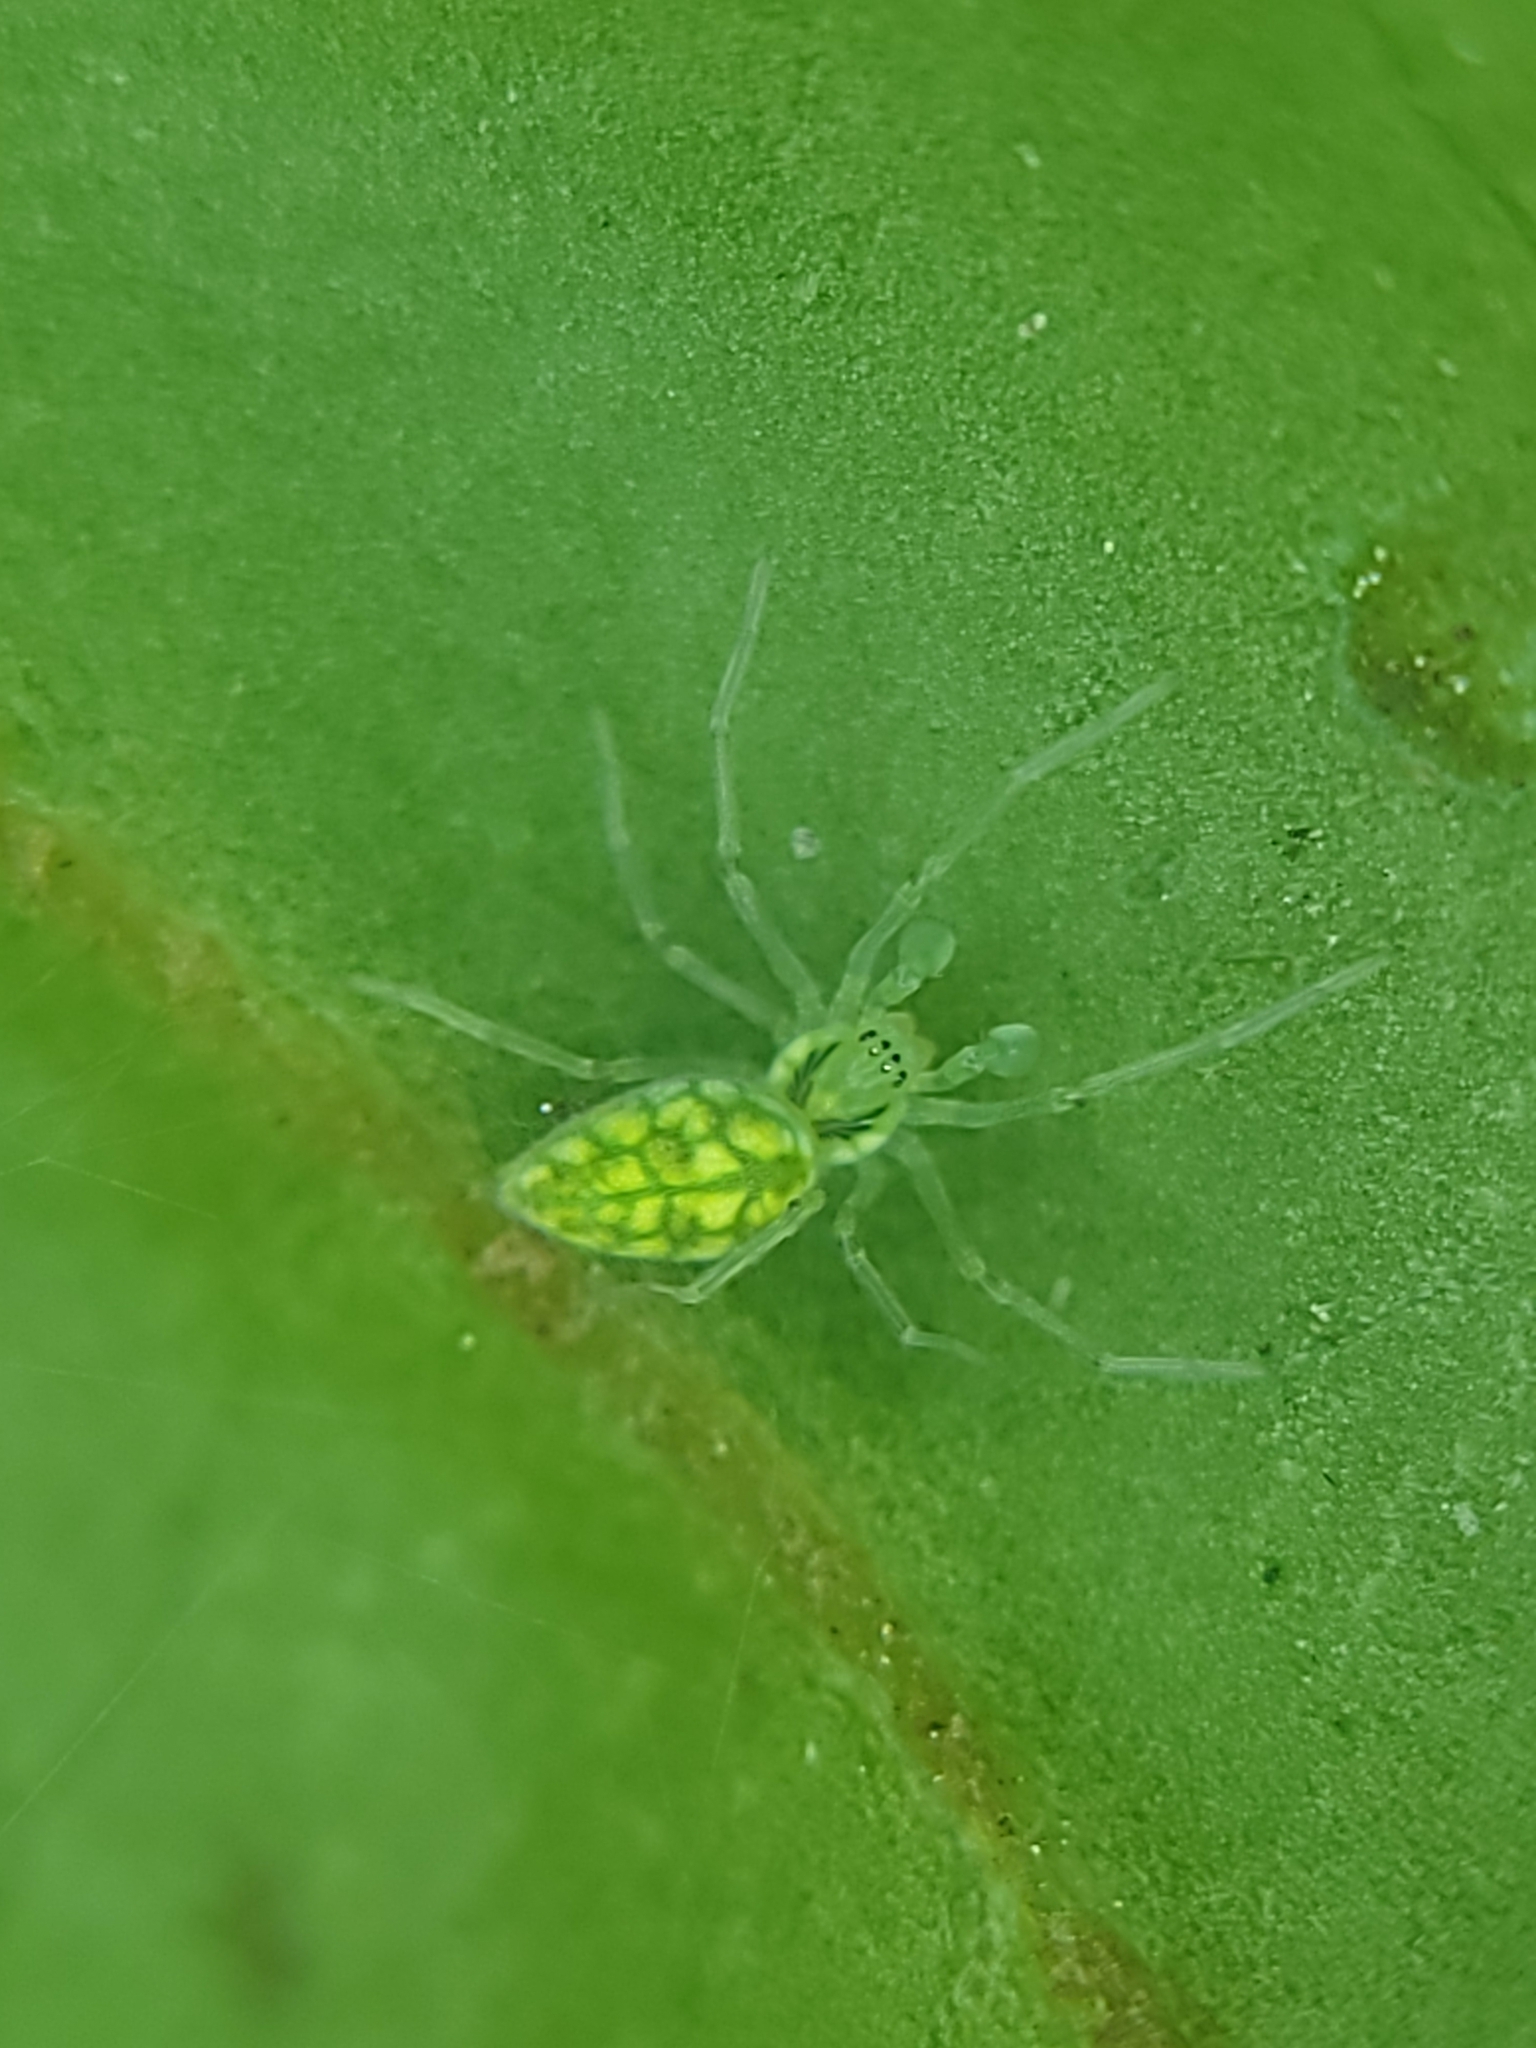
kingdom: Animalia
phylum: Arthropoda
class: Arachnida
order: Araneae
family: Dictynidae
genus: Nigma
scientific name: Nigma linsdalei
